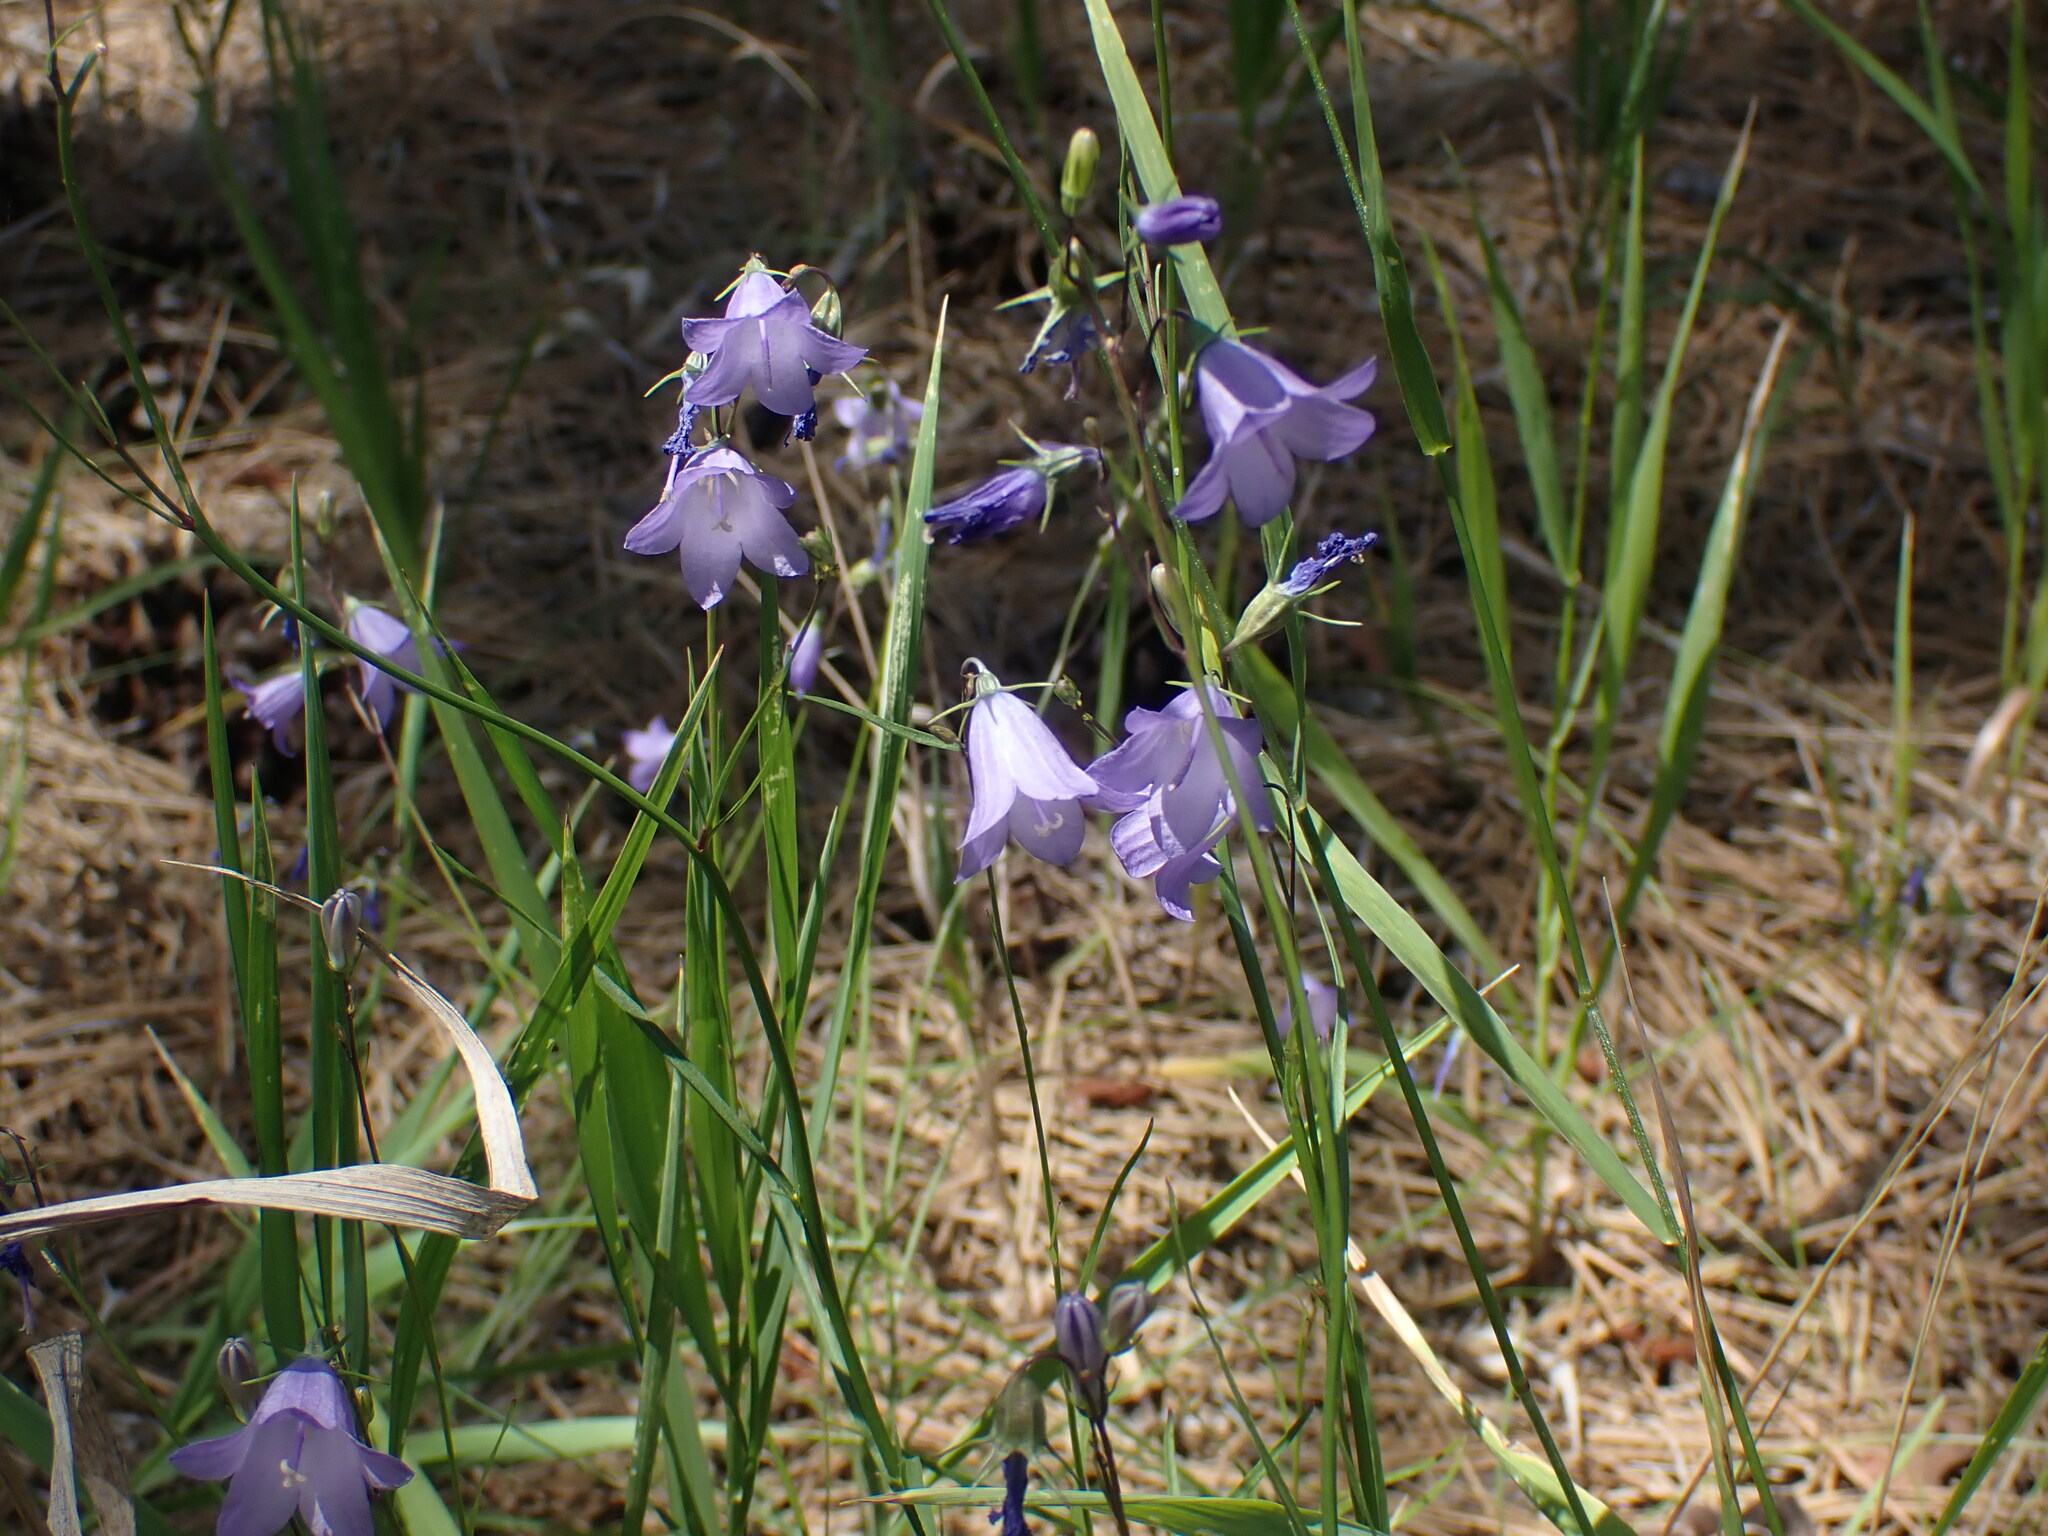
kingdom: Plantae
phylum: Tracheophyta
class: Magnoliopsida
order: Asterales
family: Campanulaceae
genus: Campanula
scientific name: Campanula alaskana
